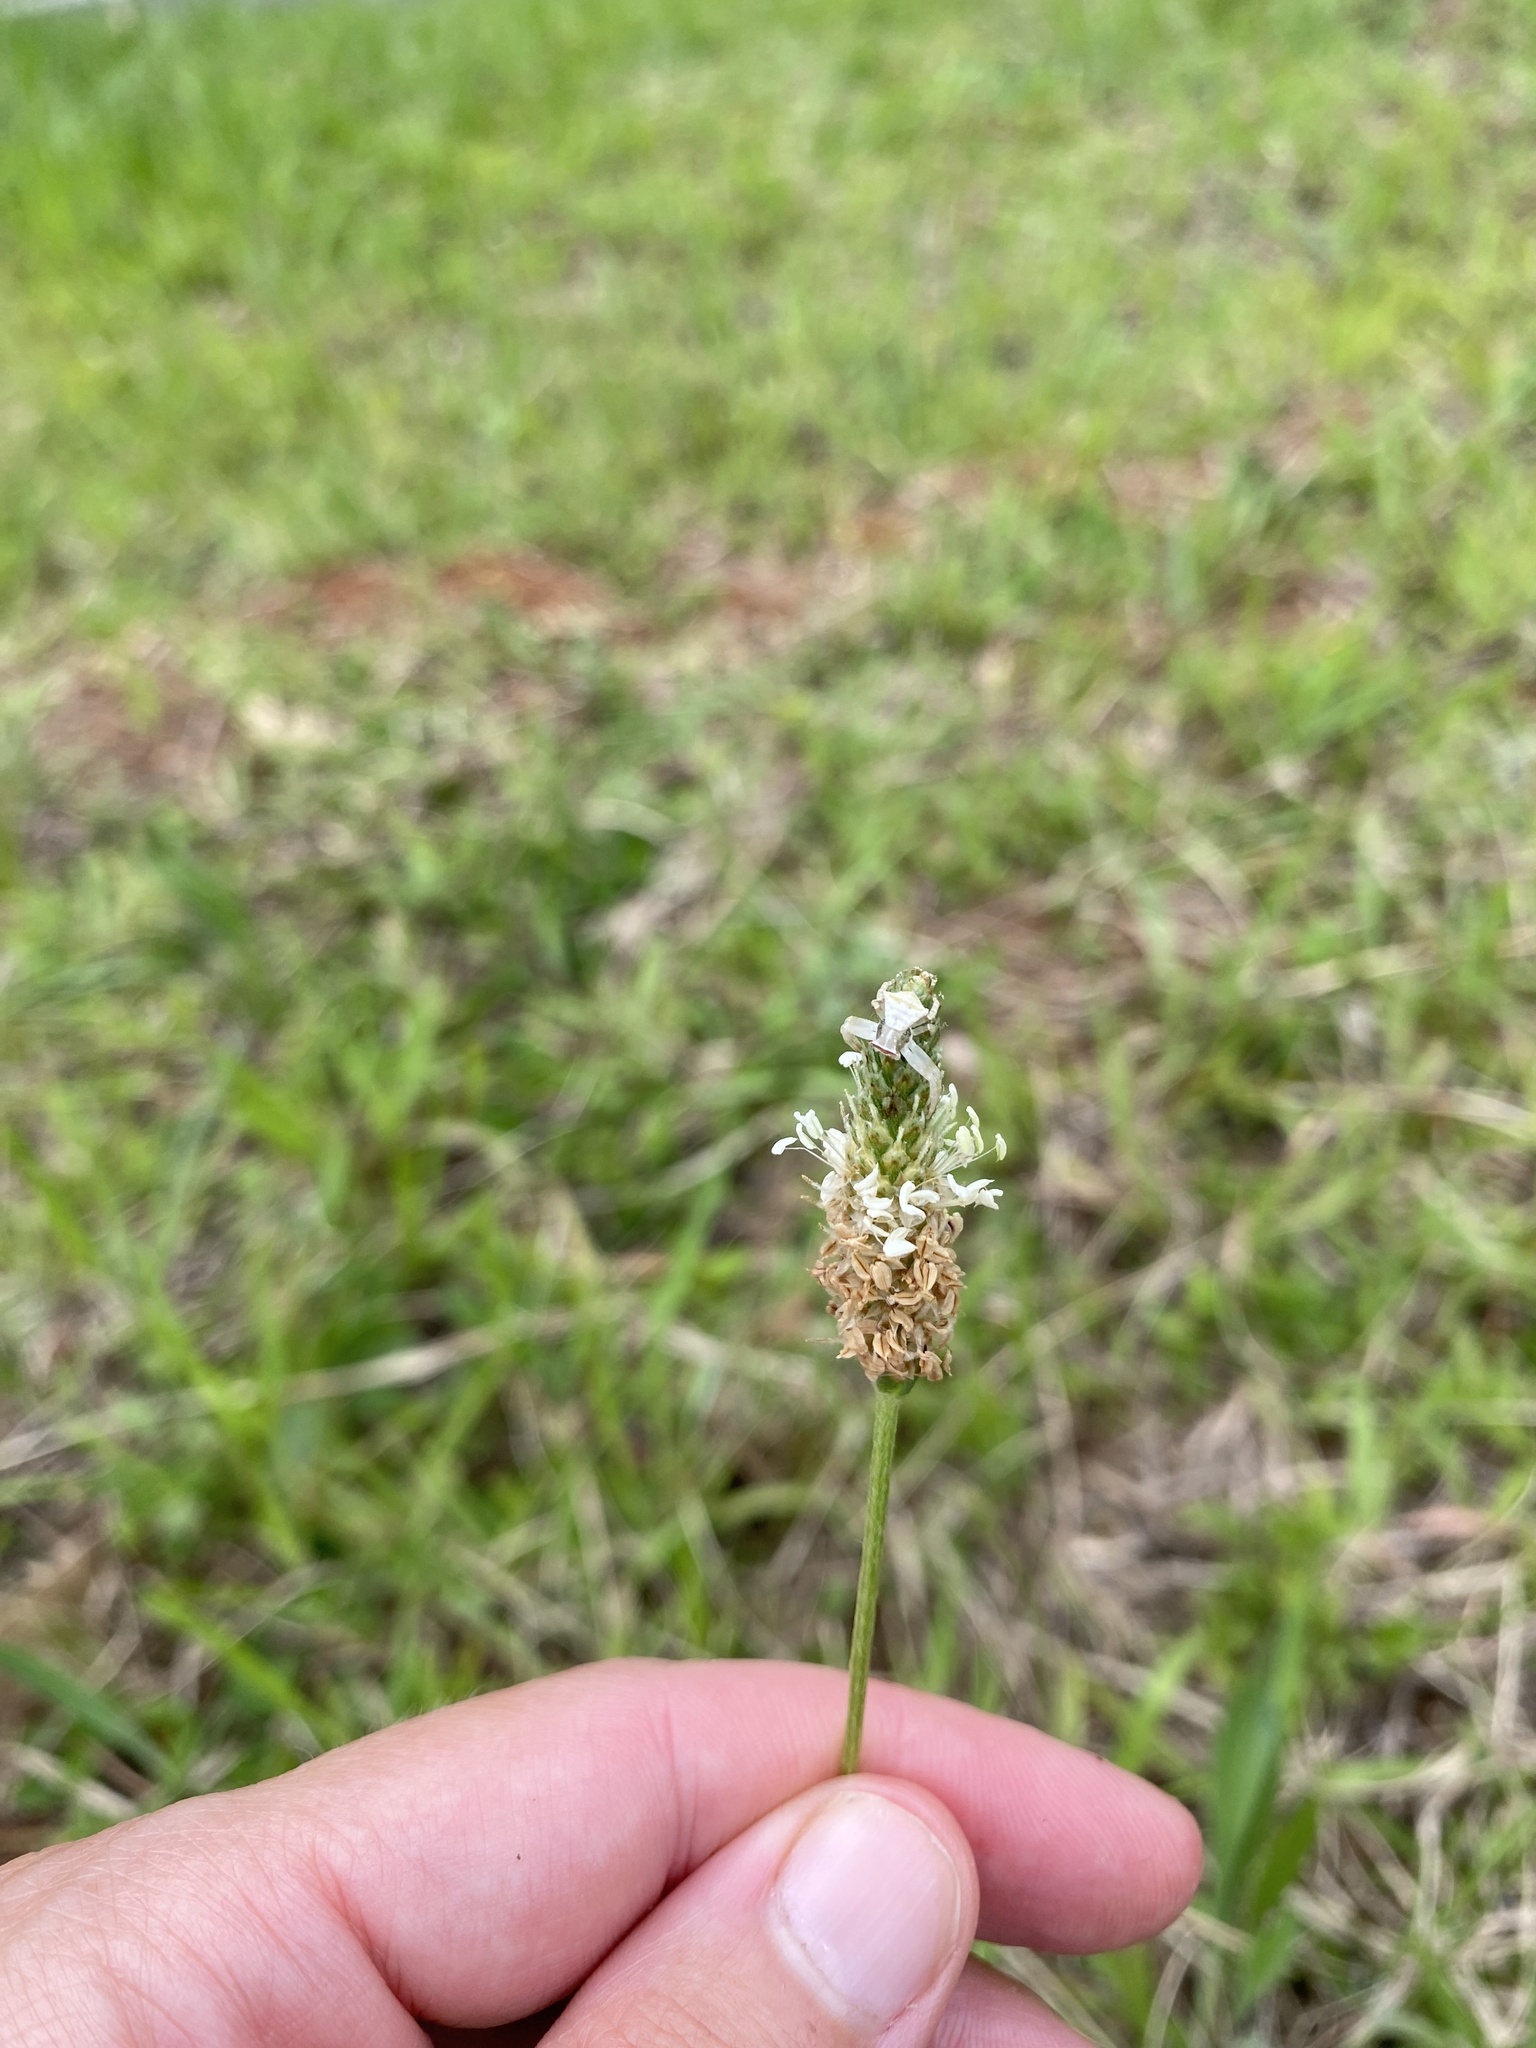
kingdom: Plantae
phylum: Tracheophyta
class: Magnoliopsida
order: Lamiales
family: Plantaginaceae
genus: Plantago
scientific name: Plantago lanceolata
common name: Ribwort plantain
